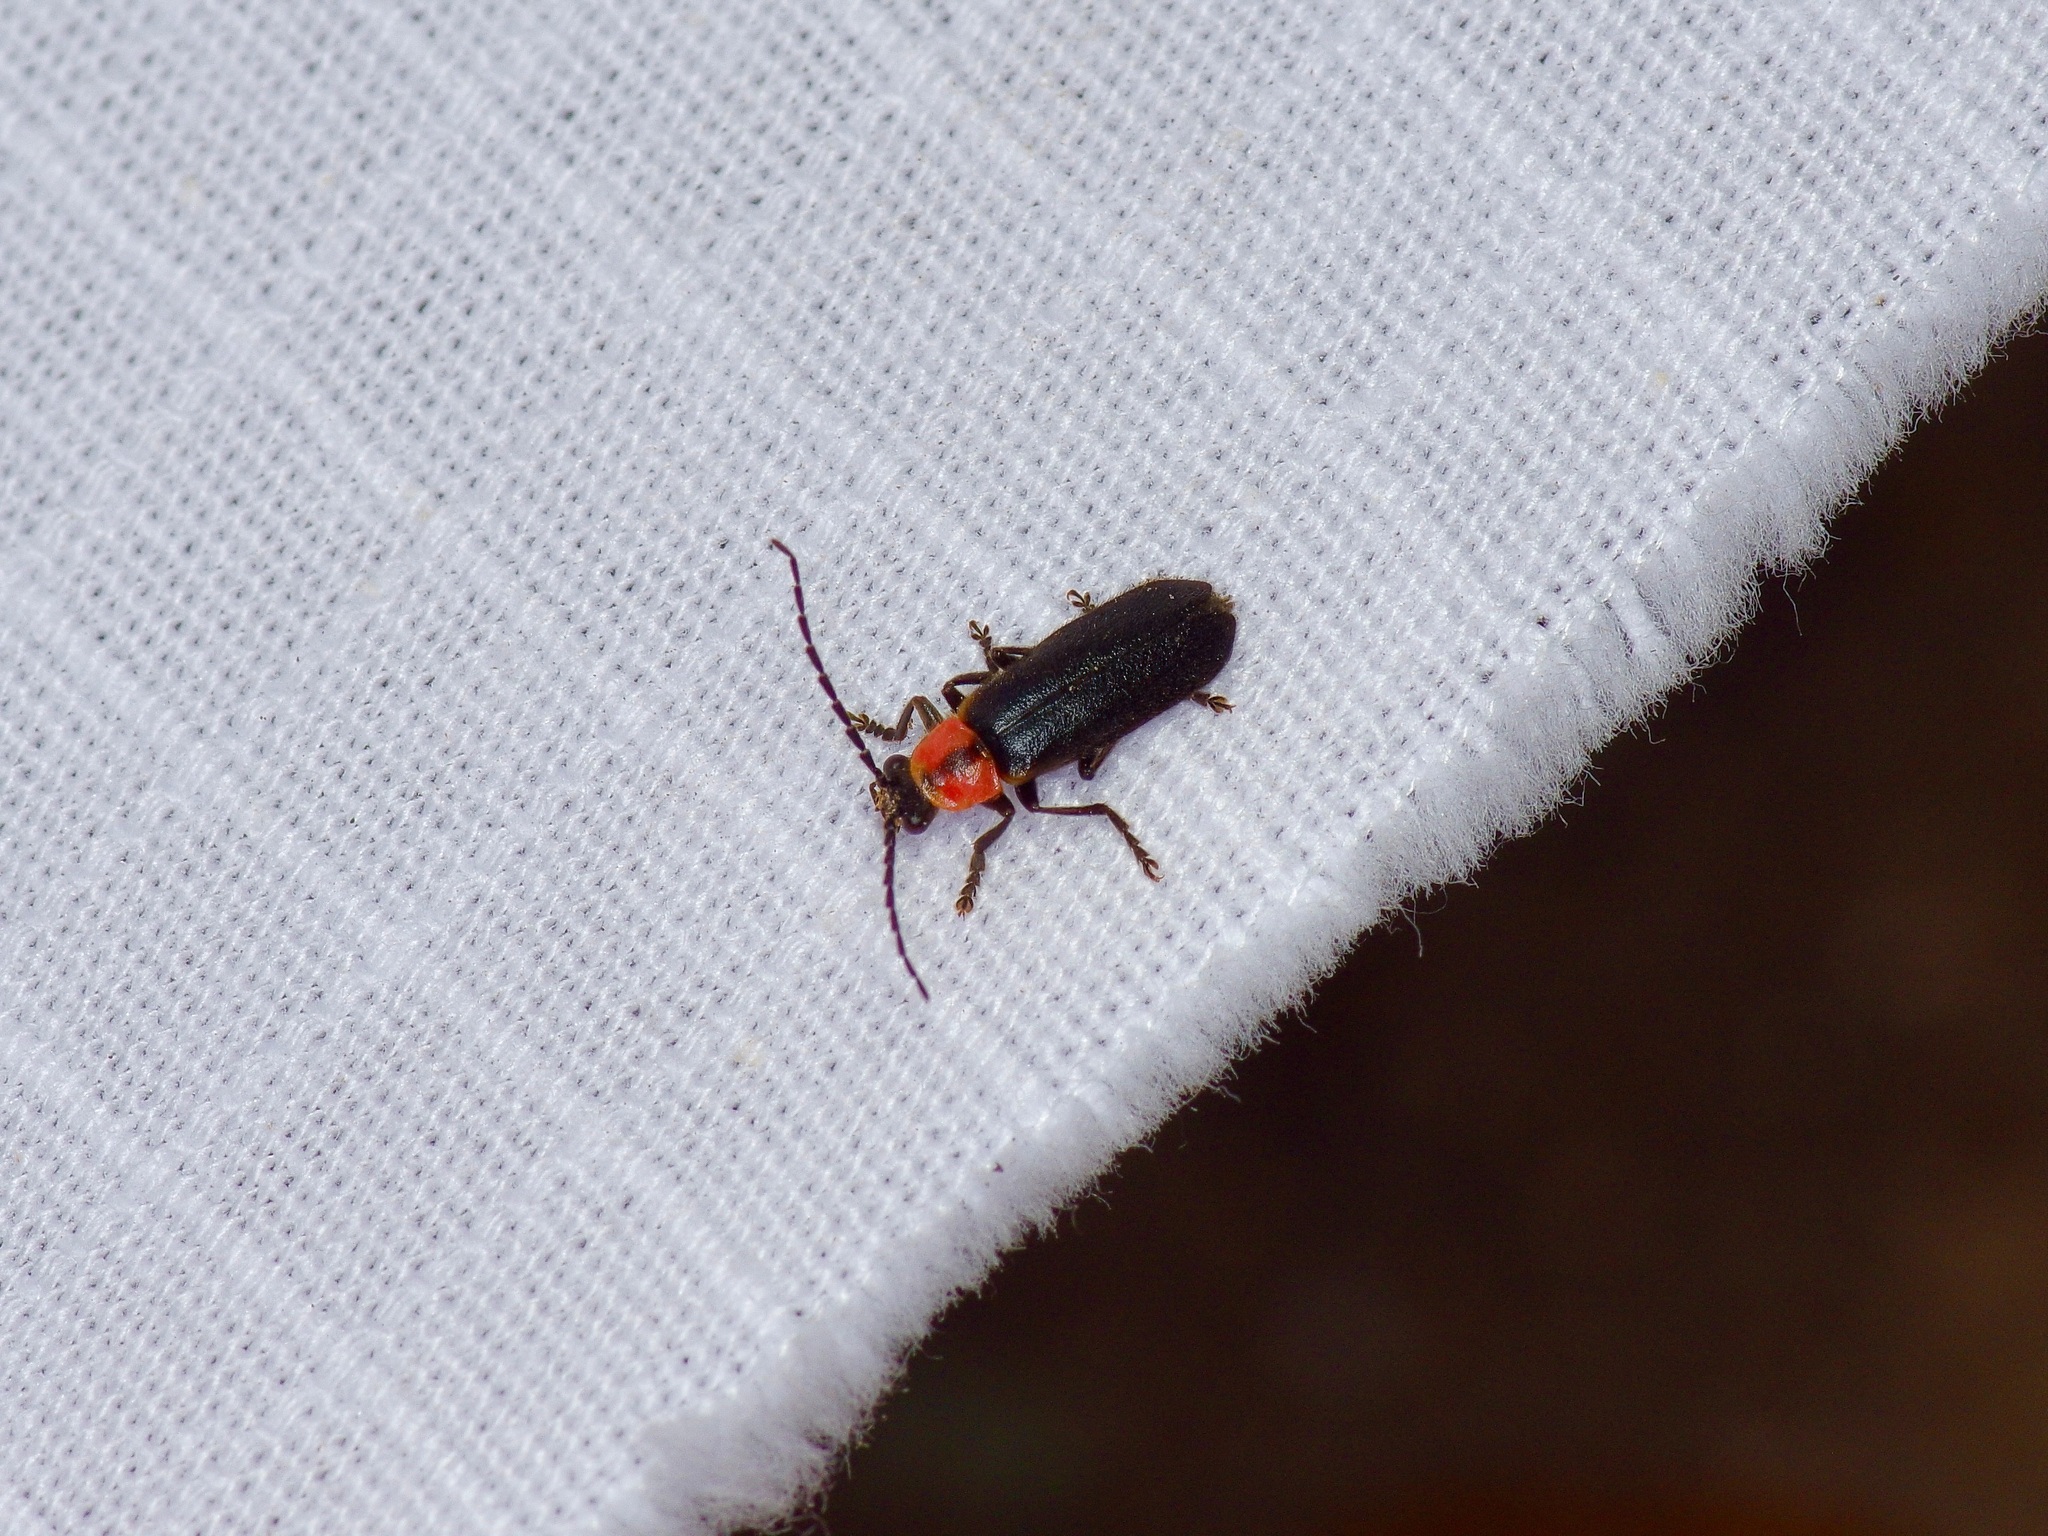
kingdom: Animalia
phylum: Arthropoda
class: Insecta
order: Coleoptera
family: Cantharidae
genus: Discodon
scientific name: Discodon planicolle
